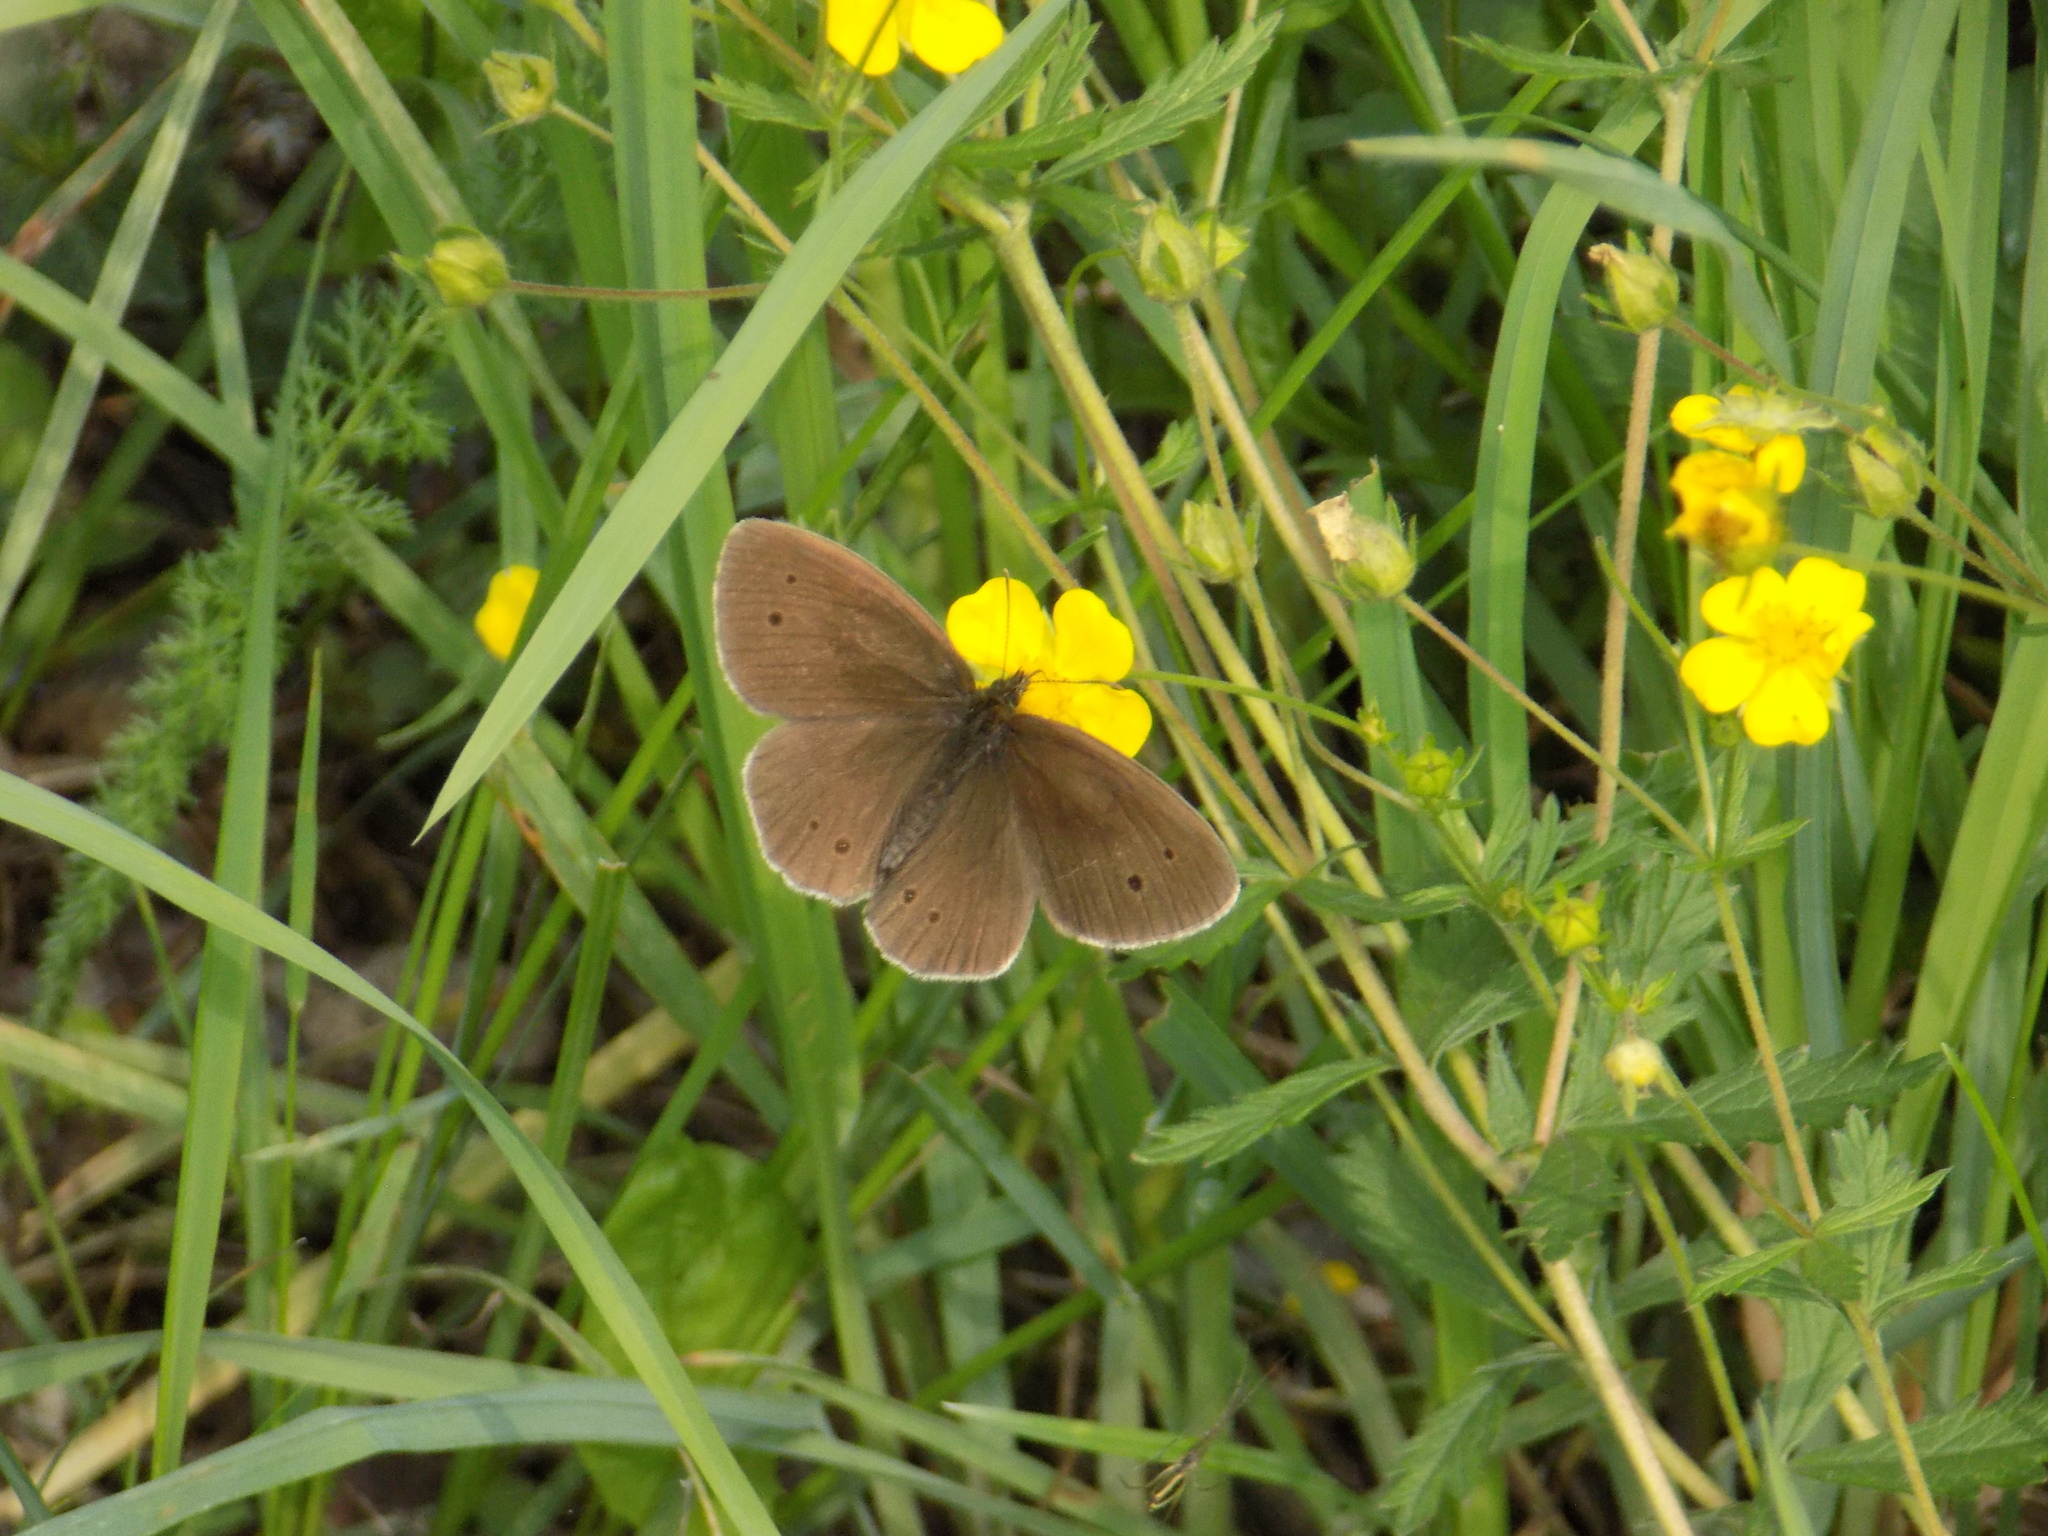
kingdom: Animalia
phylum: Arthropoda
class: Insecta
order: Lepidoptera
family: Nymphalidae
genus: Aphantopus
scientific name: Aphantopus hyperantus
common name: Ringlet
